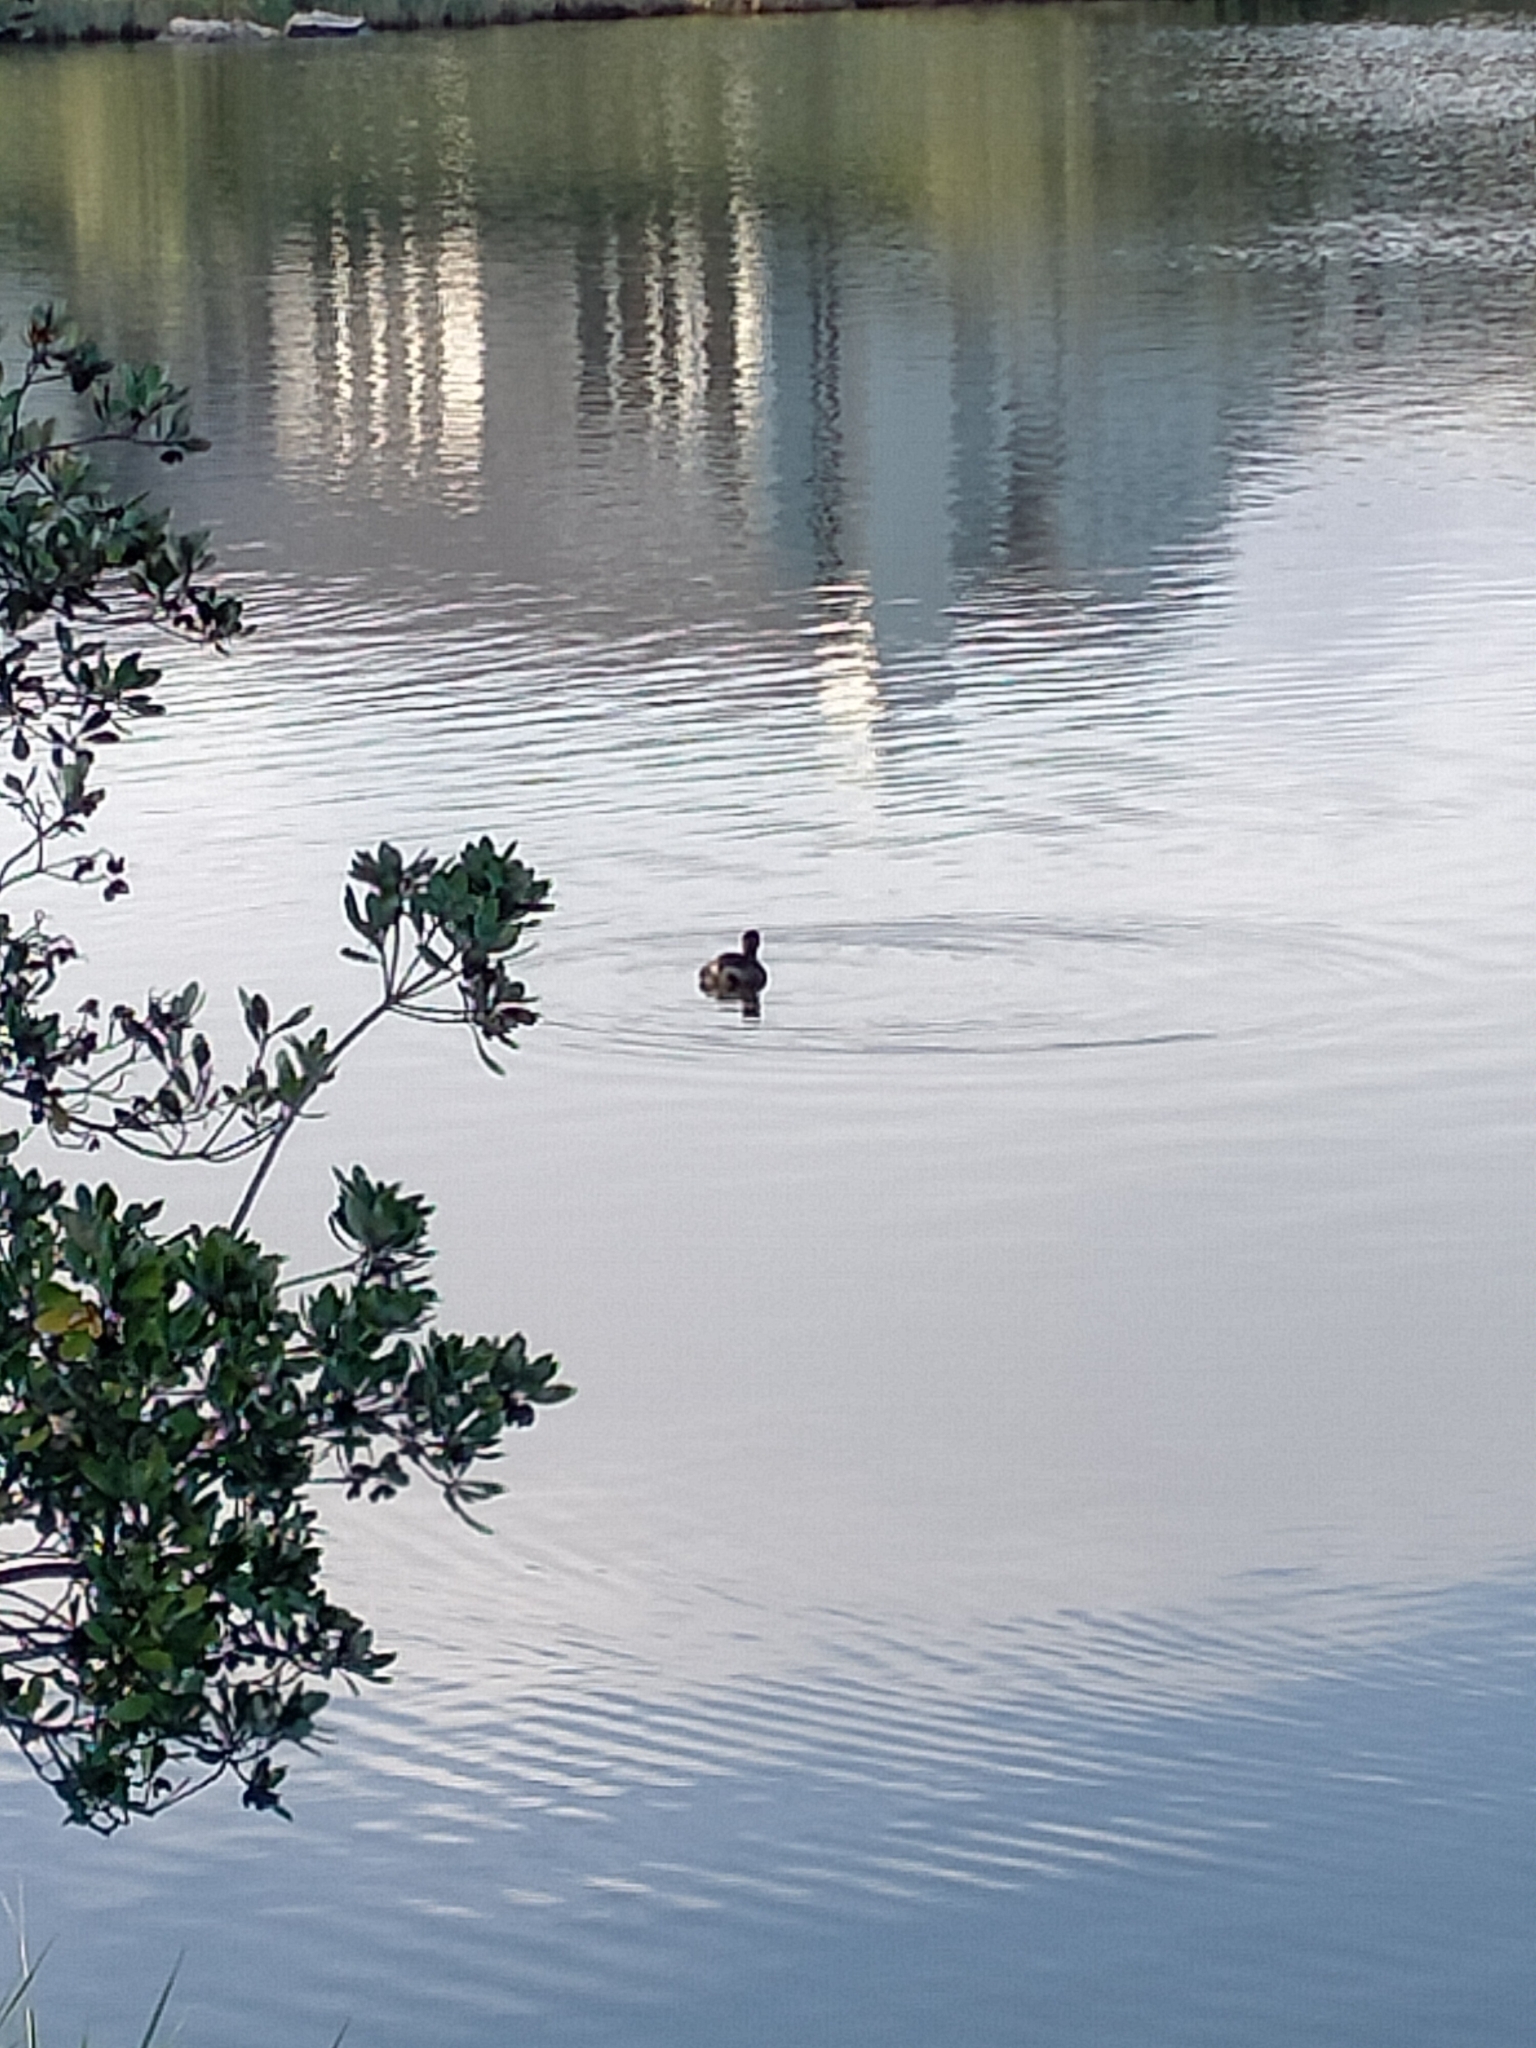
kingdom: Animalia
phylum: Chordata
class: Aves
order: Podicipediformes
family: Podicipedidae
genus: Poliocephalus
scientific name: Poliocephalus rufopectus
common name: New zealand grebe
